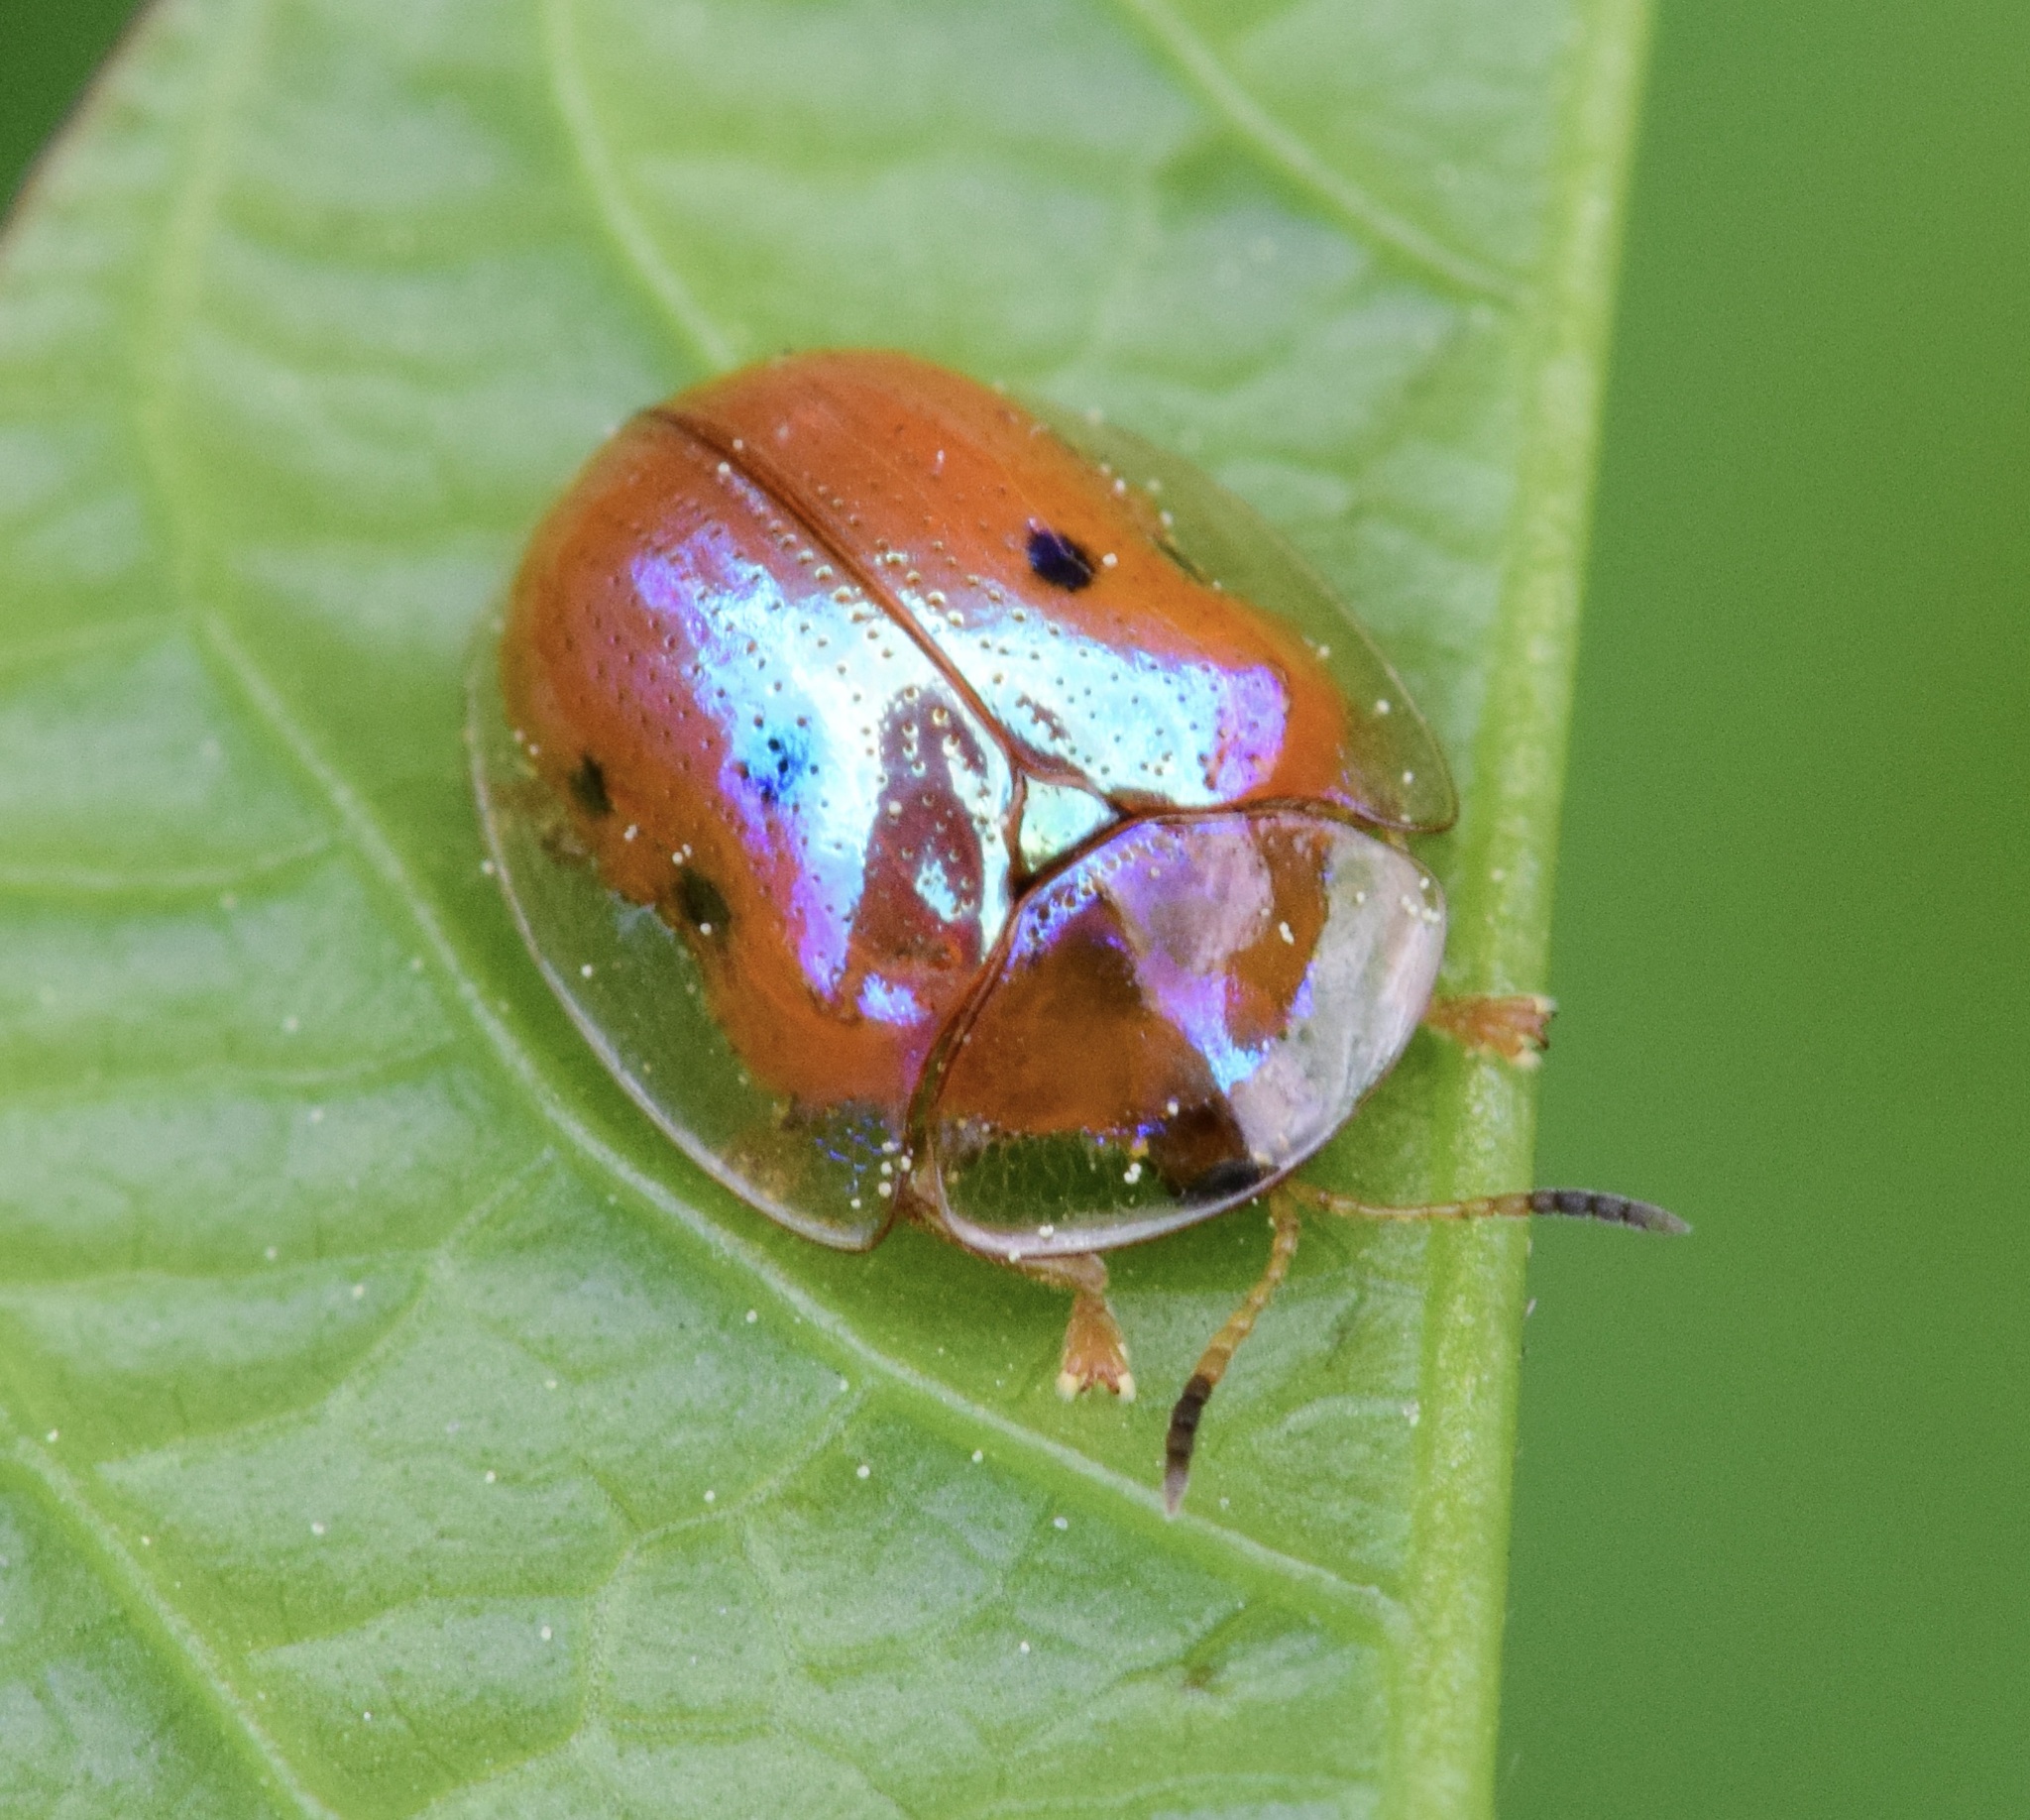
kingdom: Animalia
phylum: Arthropoda
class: Insecta
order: Coleoptera
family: Chrysomelidae
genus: Charidotella
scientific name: Charidotella sexpunctata
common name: Golden tortoise beetle
